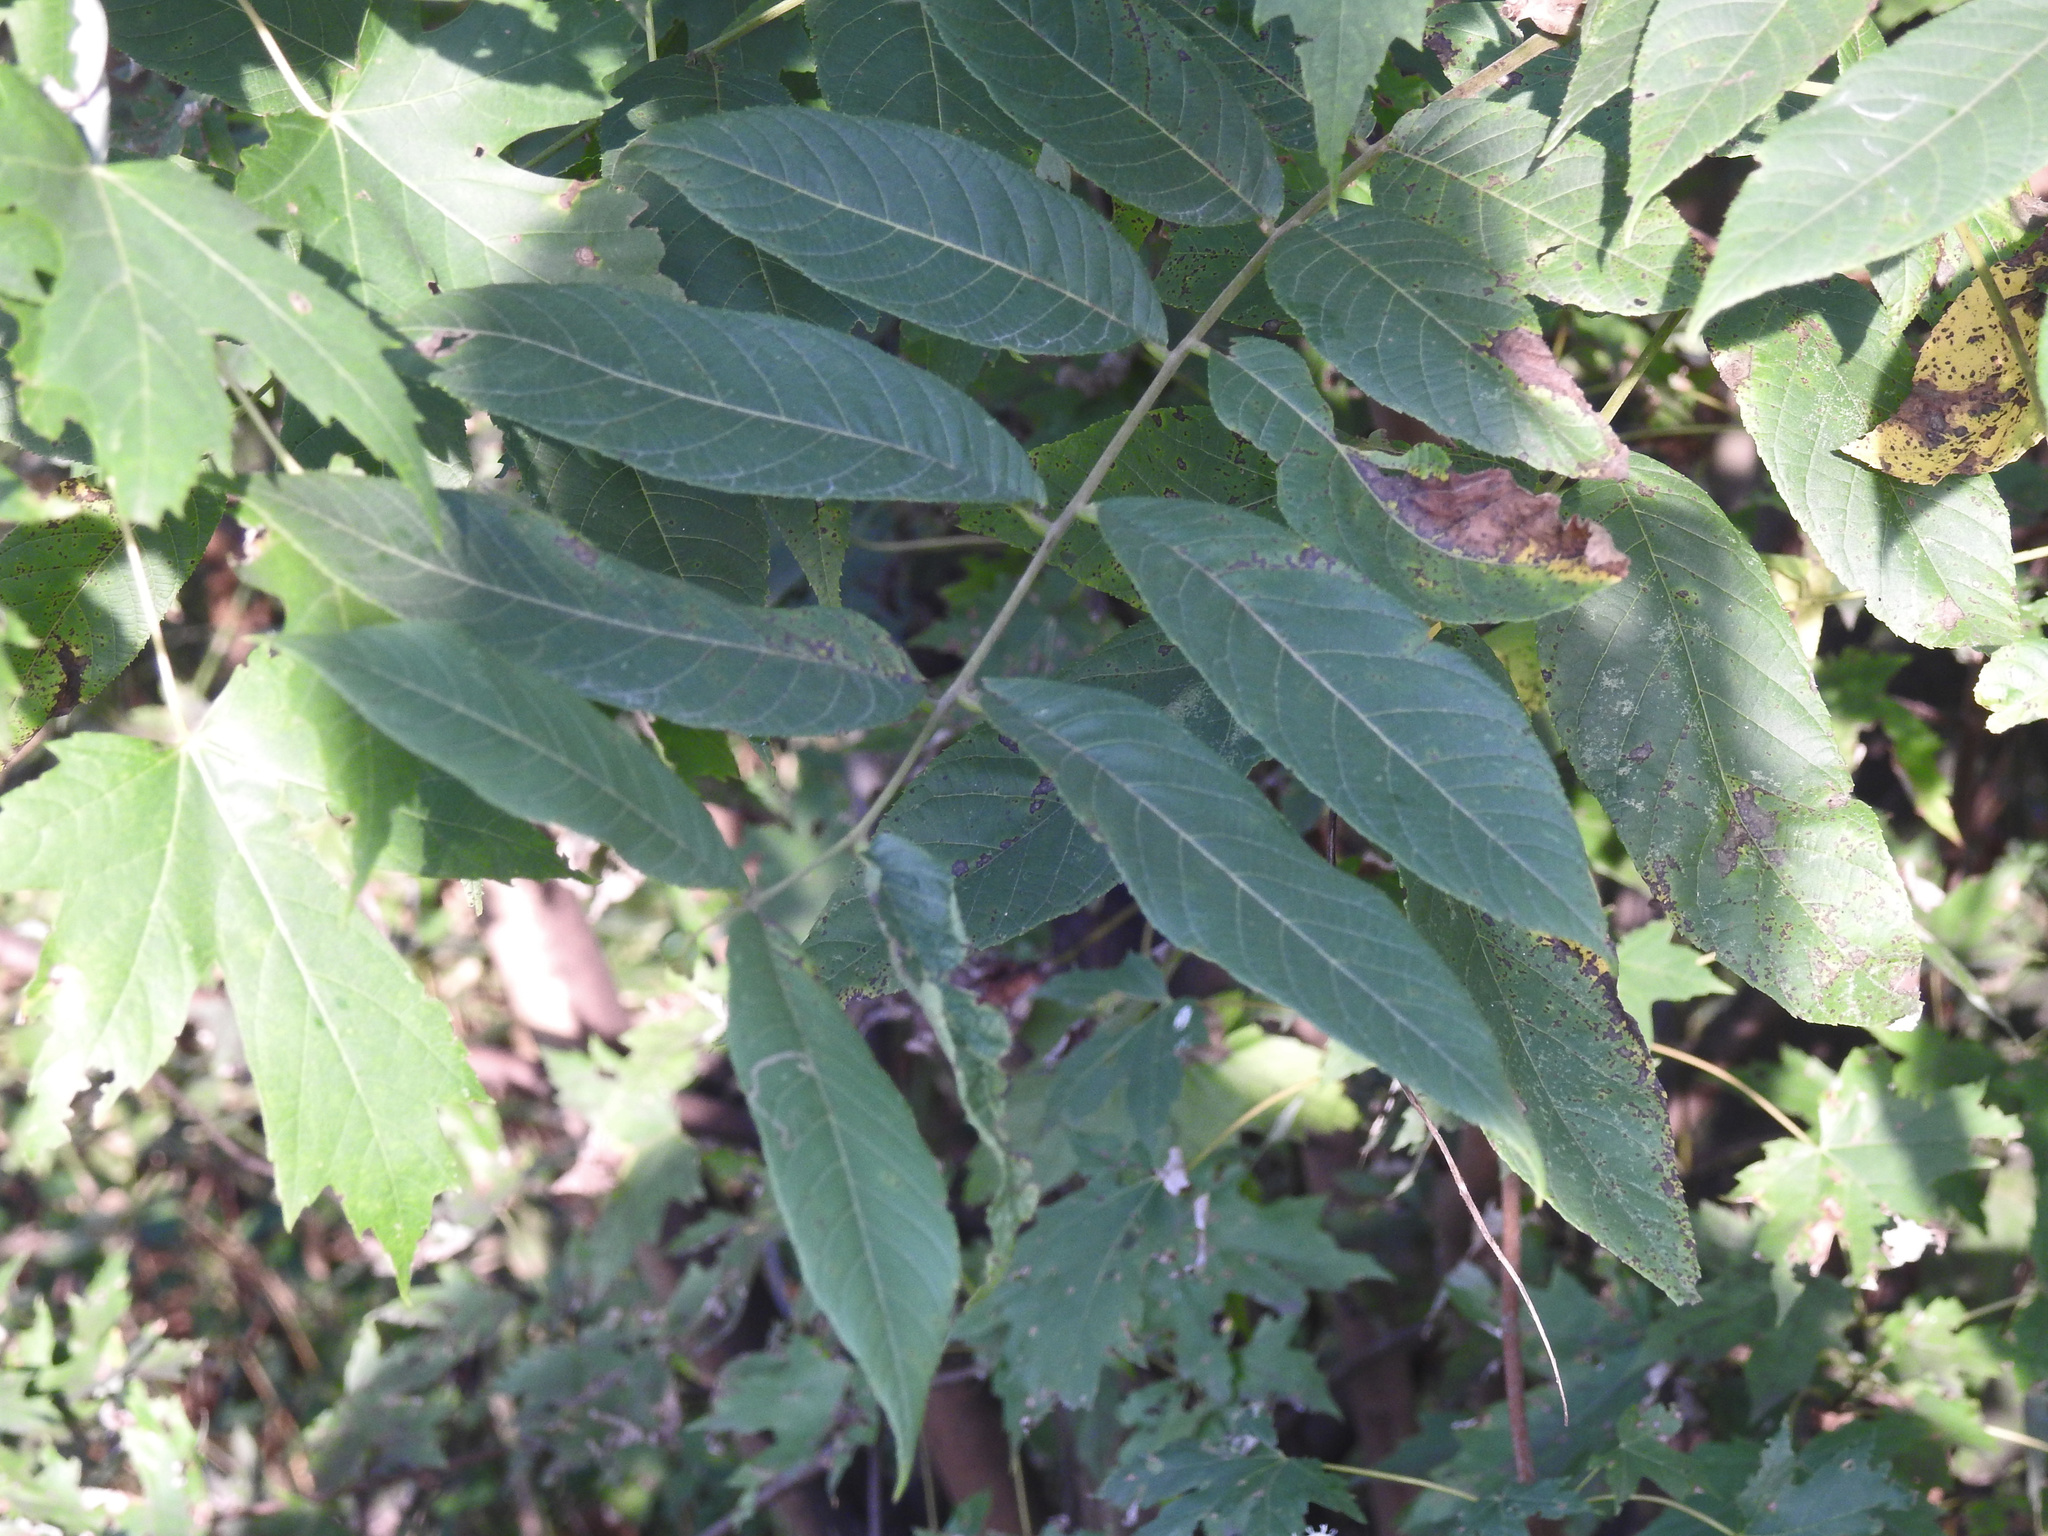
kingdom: Plantae
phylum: Tracheophyta
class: Magnoliopsida
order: Fagales
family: Juglandaceae
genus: Juglans
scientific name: Juglans nigra
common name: Black walnut
